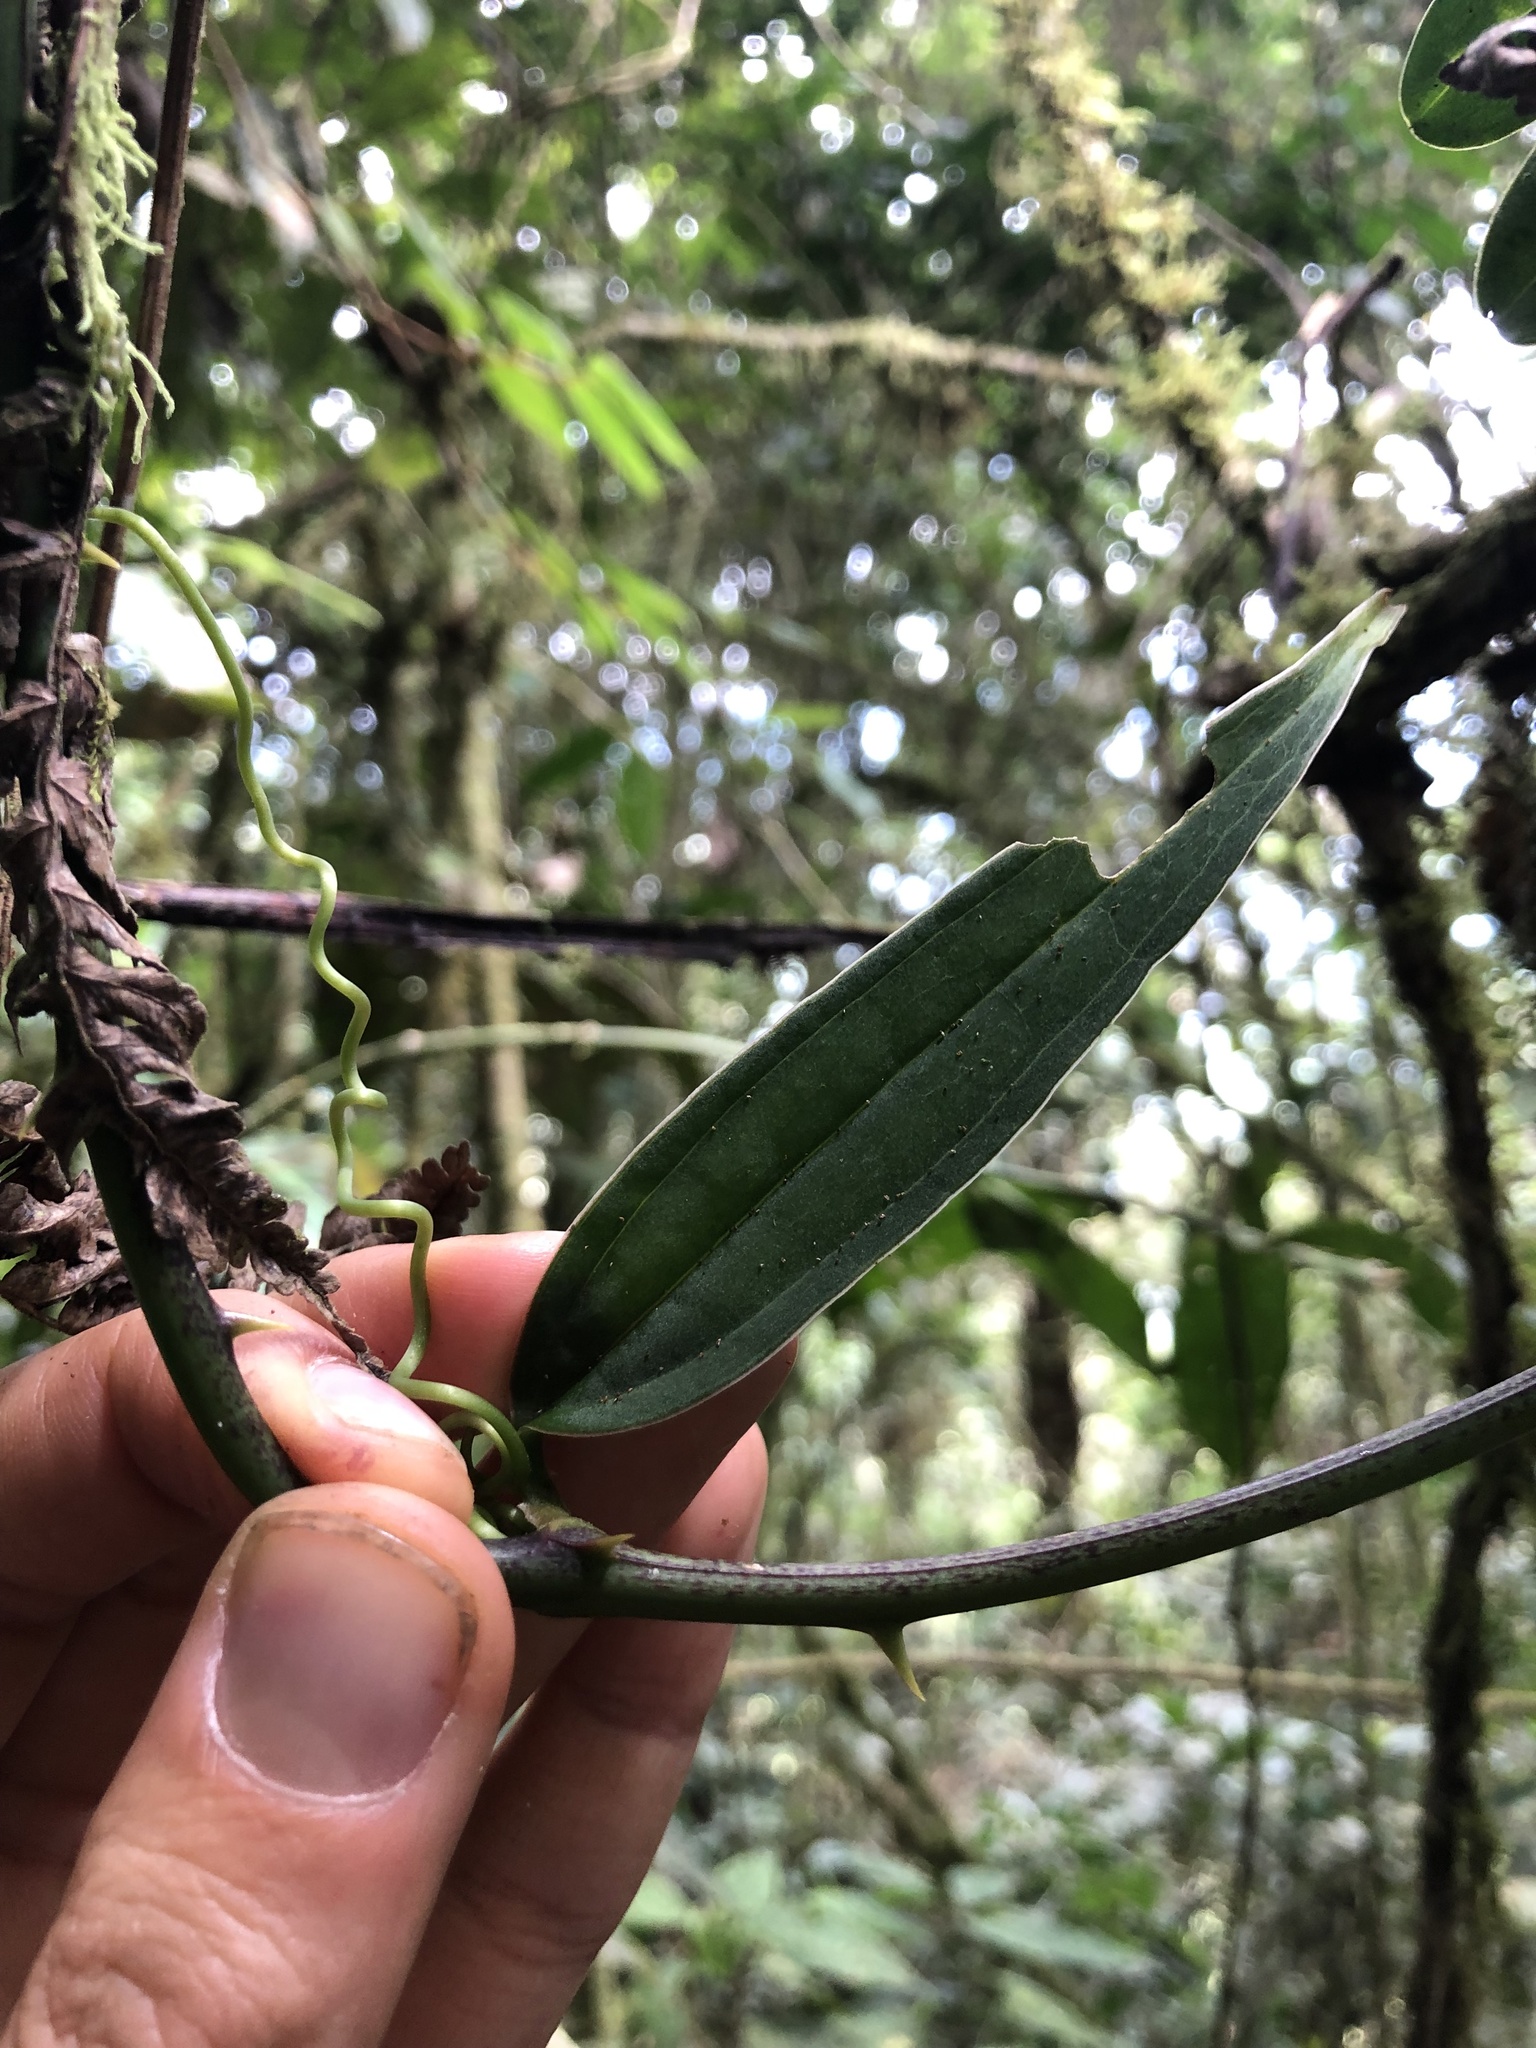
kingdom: Plantae
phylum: Tracheophyta
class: Liliopsida
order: Liliales
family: Smilacaceae
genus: Smilax
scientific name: Smilax spinosa
